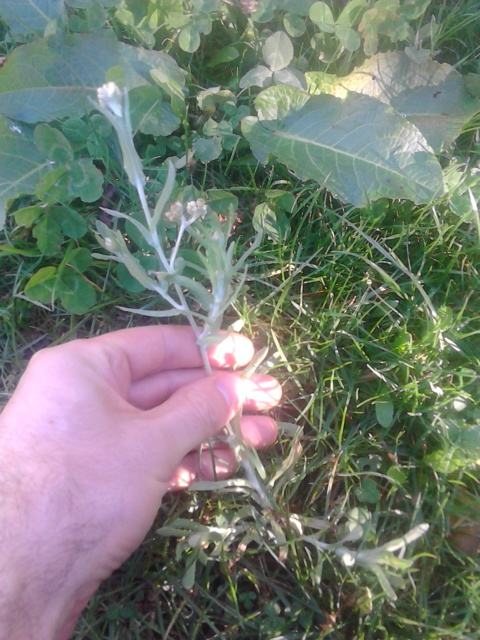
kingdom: Plantae
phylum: Tracheophyta
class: Magnoliopsida
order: Asterales
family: Asteraceae
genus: Helichrysum
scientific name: Helichrysum luteoalbum
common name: Daisy
